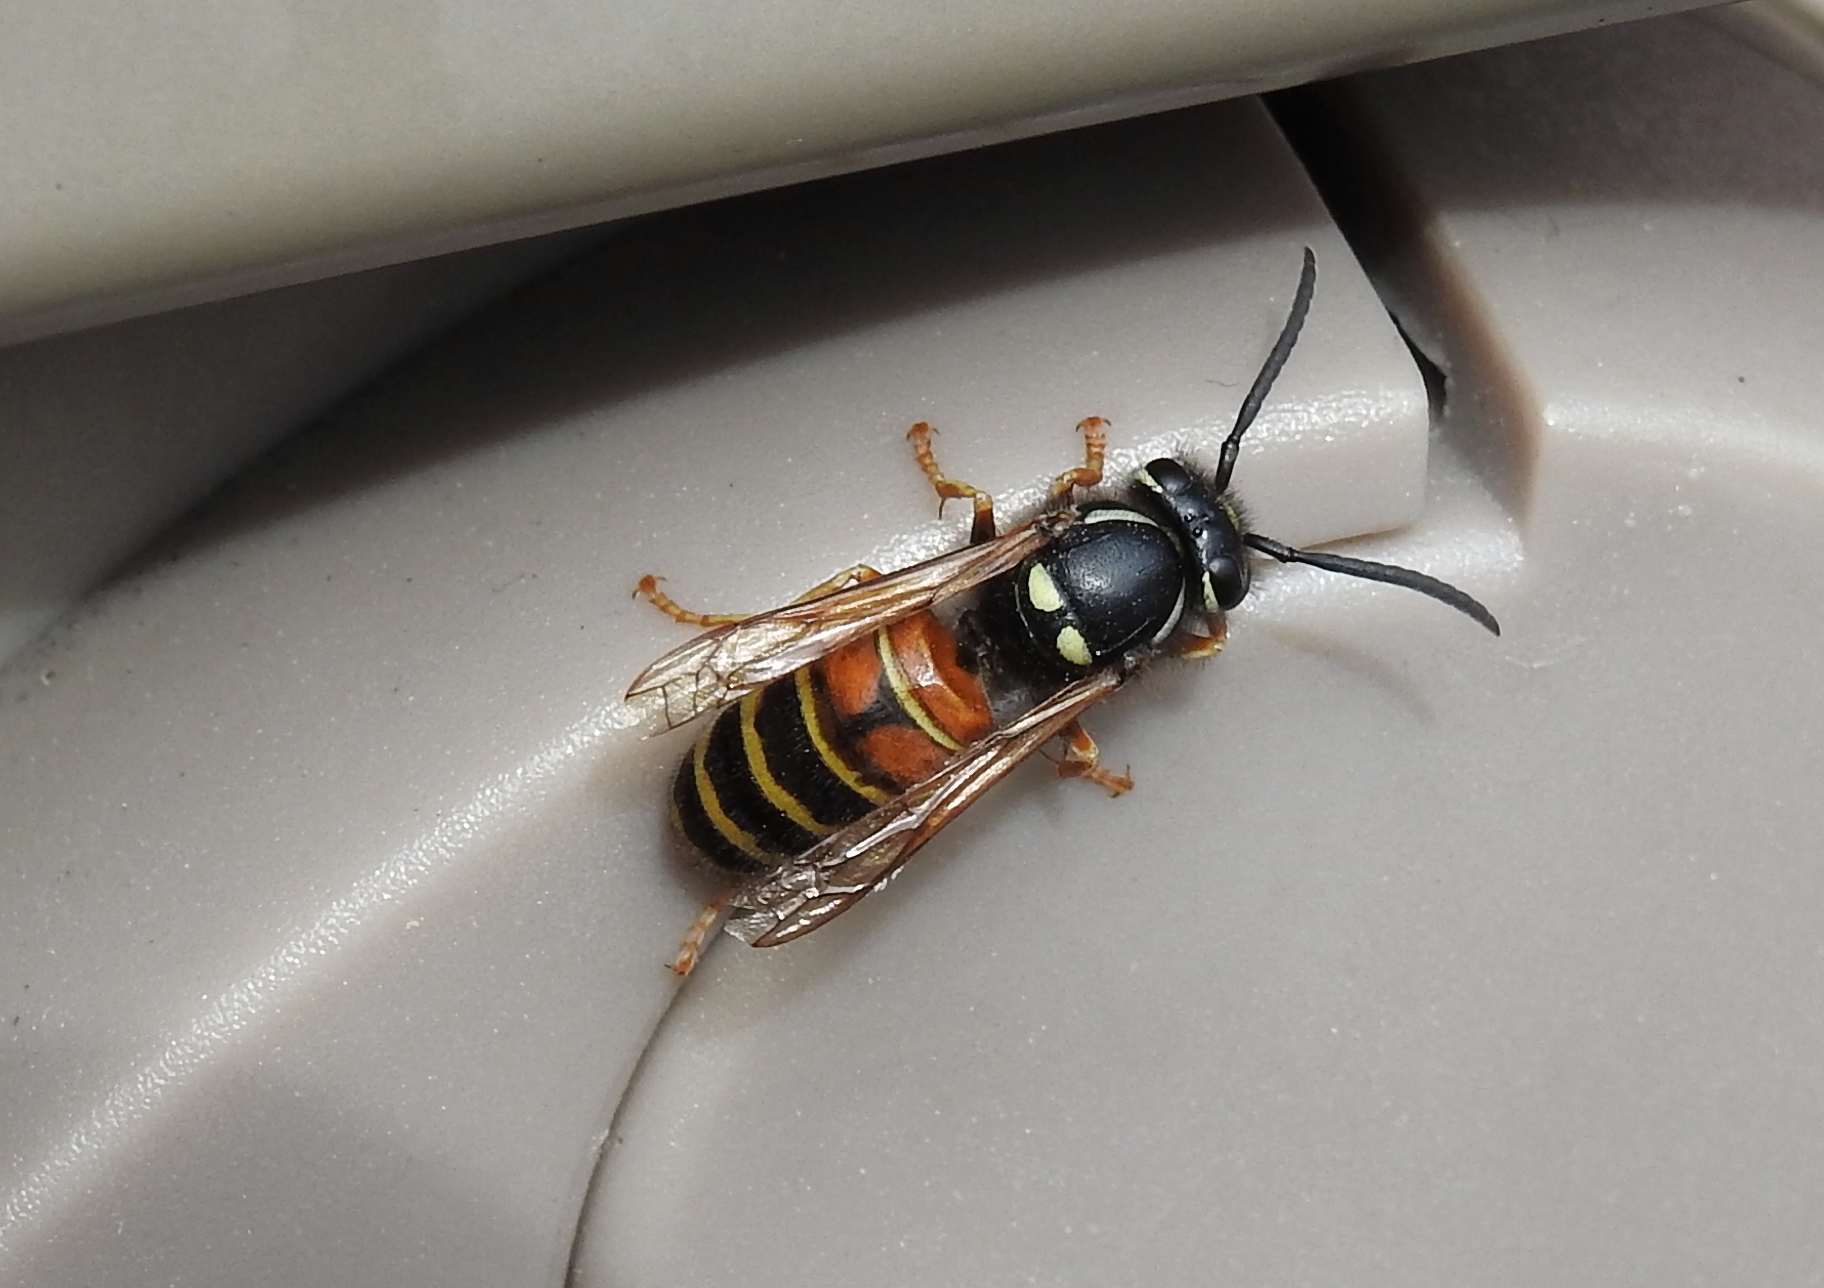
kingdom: Animalia
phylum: Arthropoda
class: Insecta
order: Hymenoptera
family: Vespidae
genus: Vespula
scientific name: Vespula rufa
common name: Red wasp
